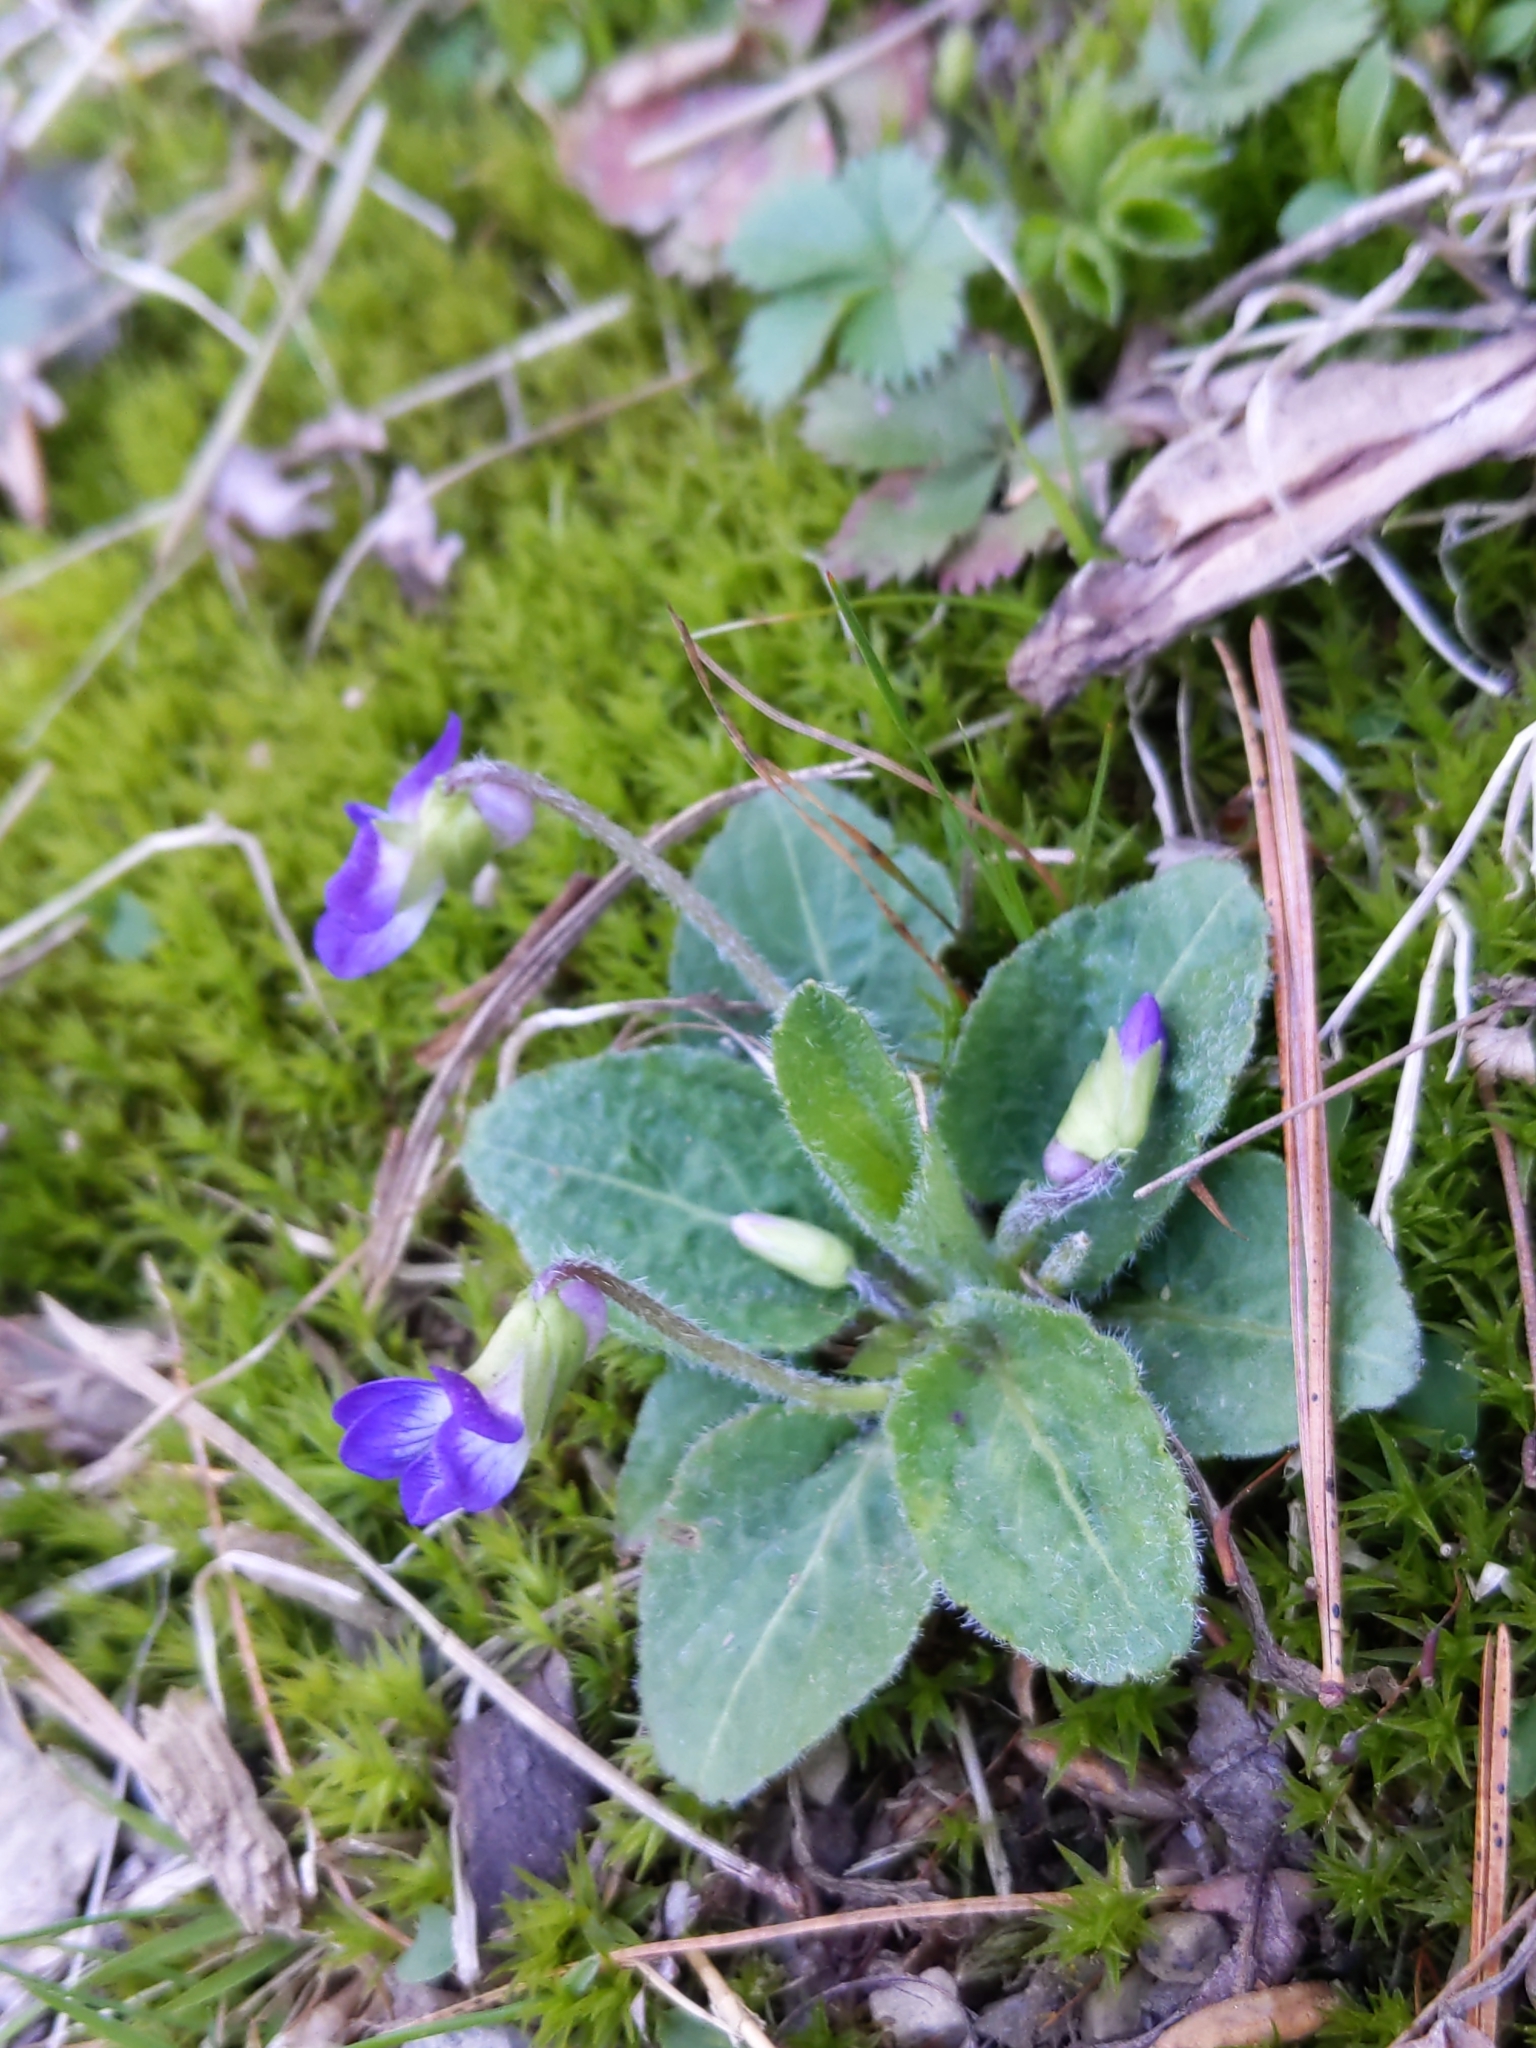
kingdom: Plantae
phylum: Tracheophyta
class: Magnoliopsida
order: Malpighiales
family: Violaceae
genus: Viola
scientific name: Viola fimbriatula
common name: Sand violet
